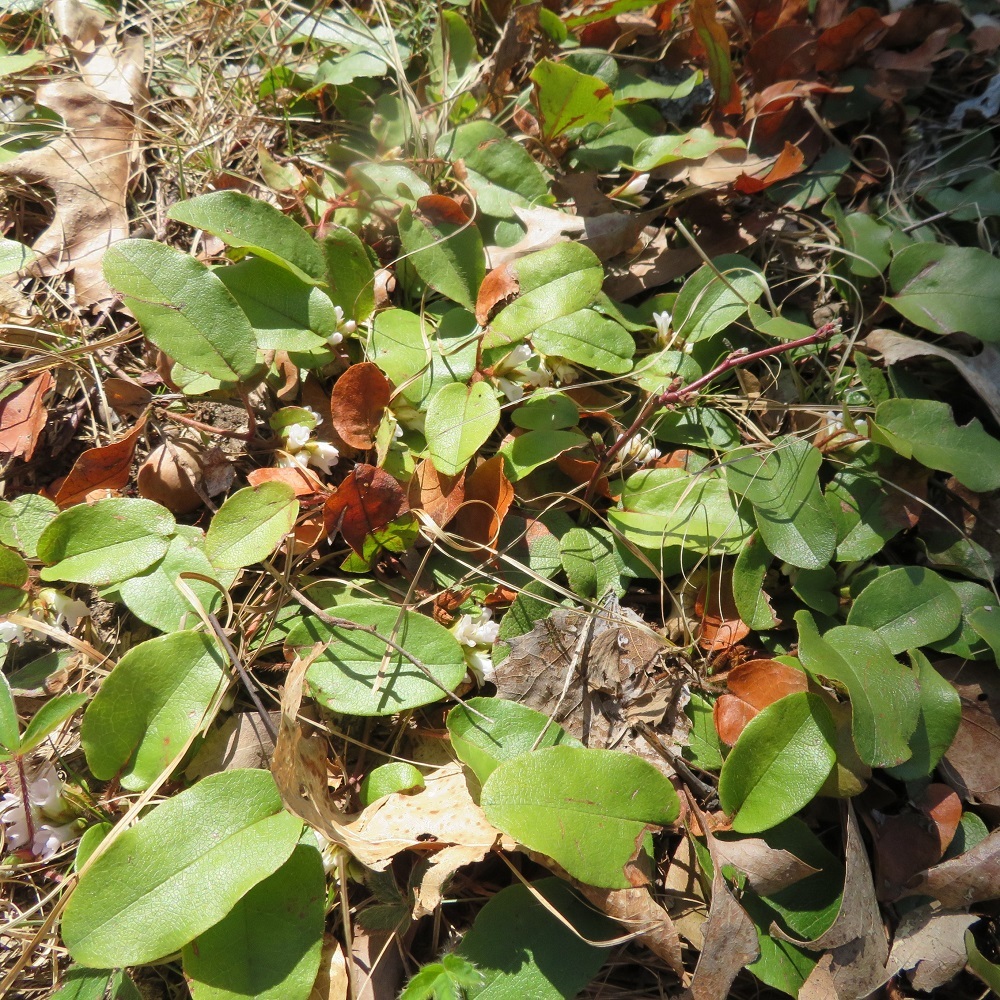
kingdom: Plantae
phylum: Tracheophyta
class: Magnoliopsida
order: Ericales
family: Ericaceae
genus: Epigaea
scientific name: Epigaea repens
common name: Gravelroot
